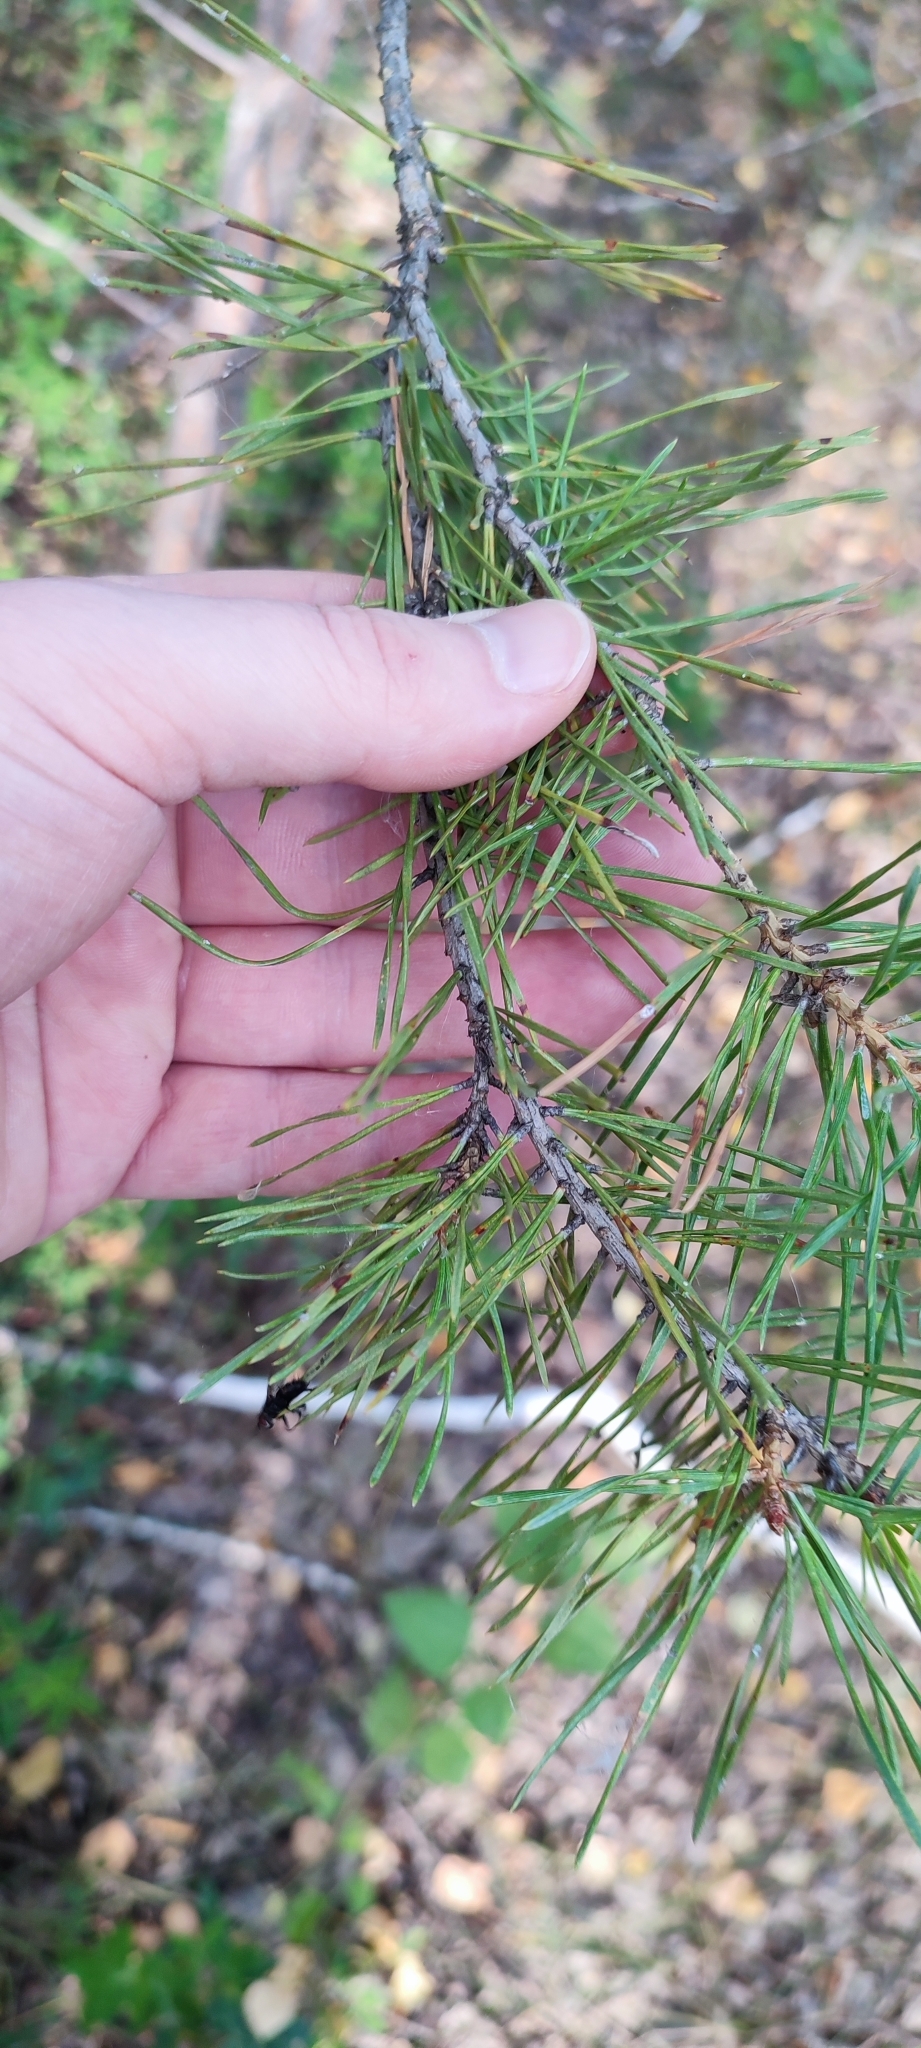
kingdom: Plantae
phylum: Tracheophyta
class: Pinopsida
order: Pinales
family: Pinaceae
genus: Pinus
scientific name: Pinus sylvestris
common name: Scots pine
